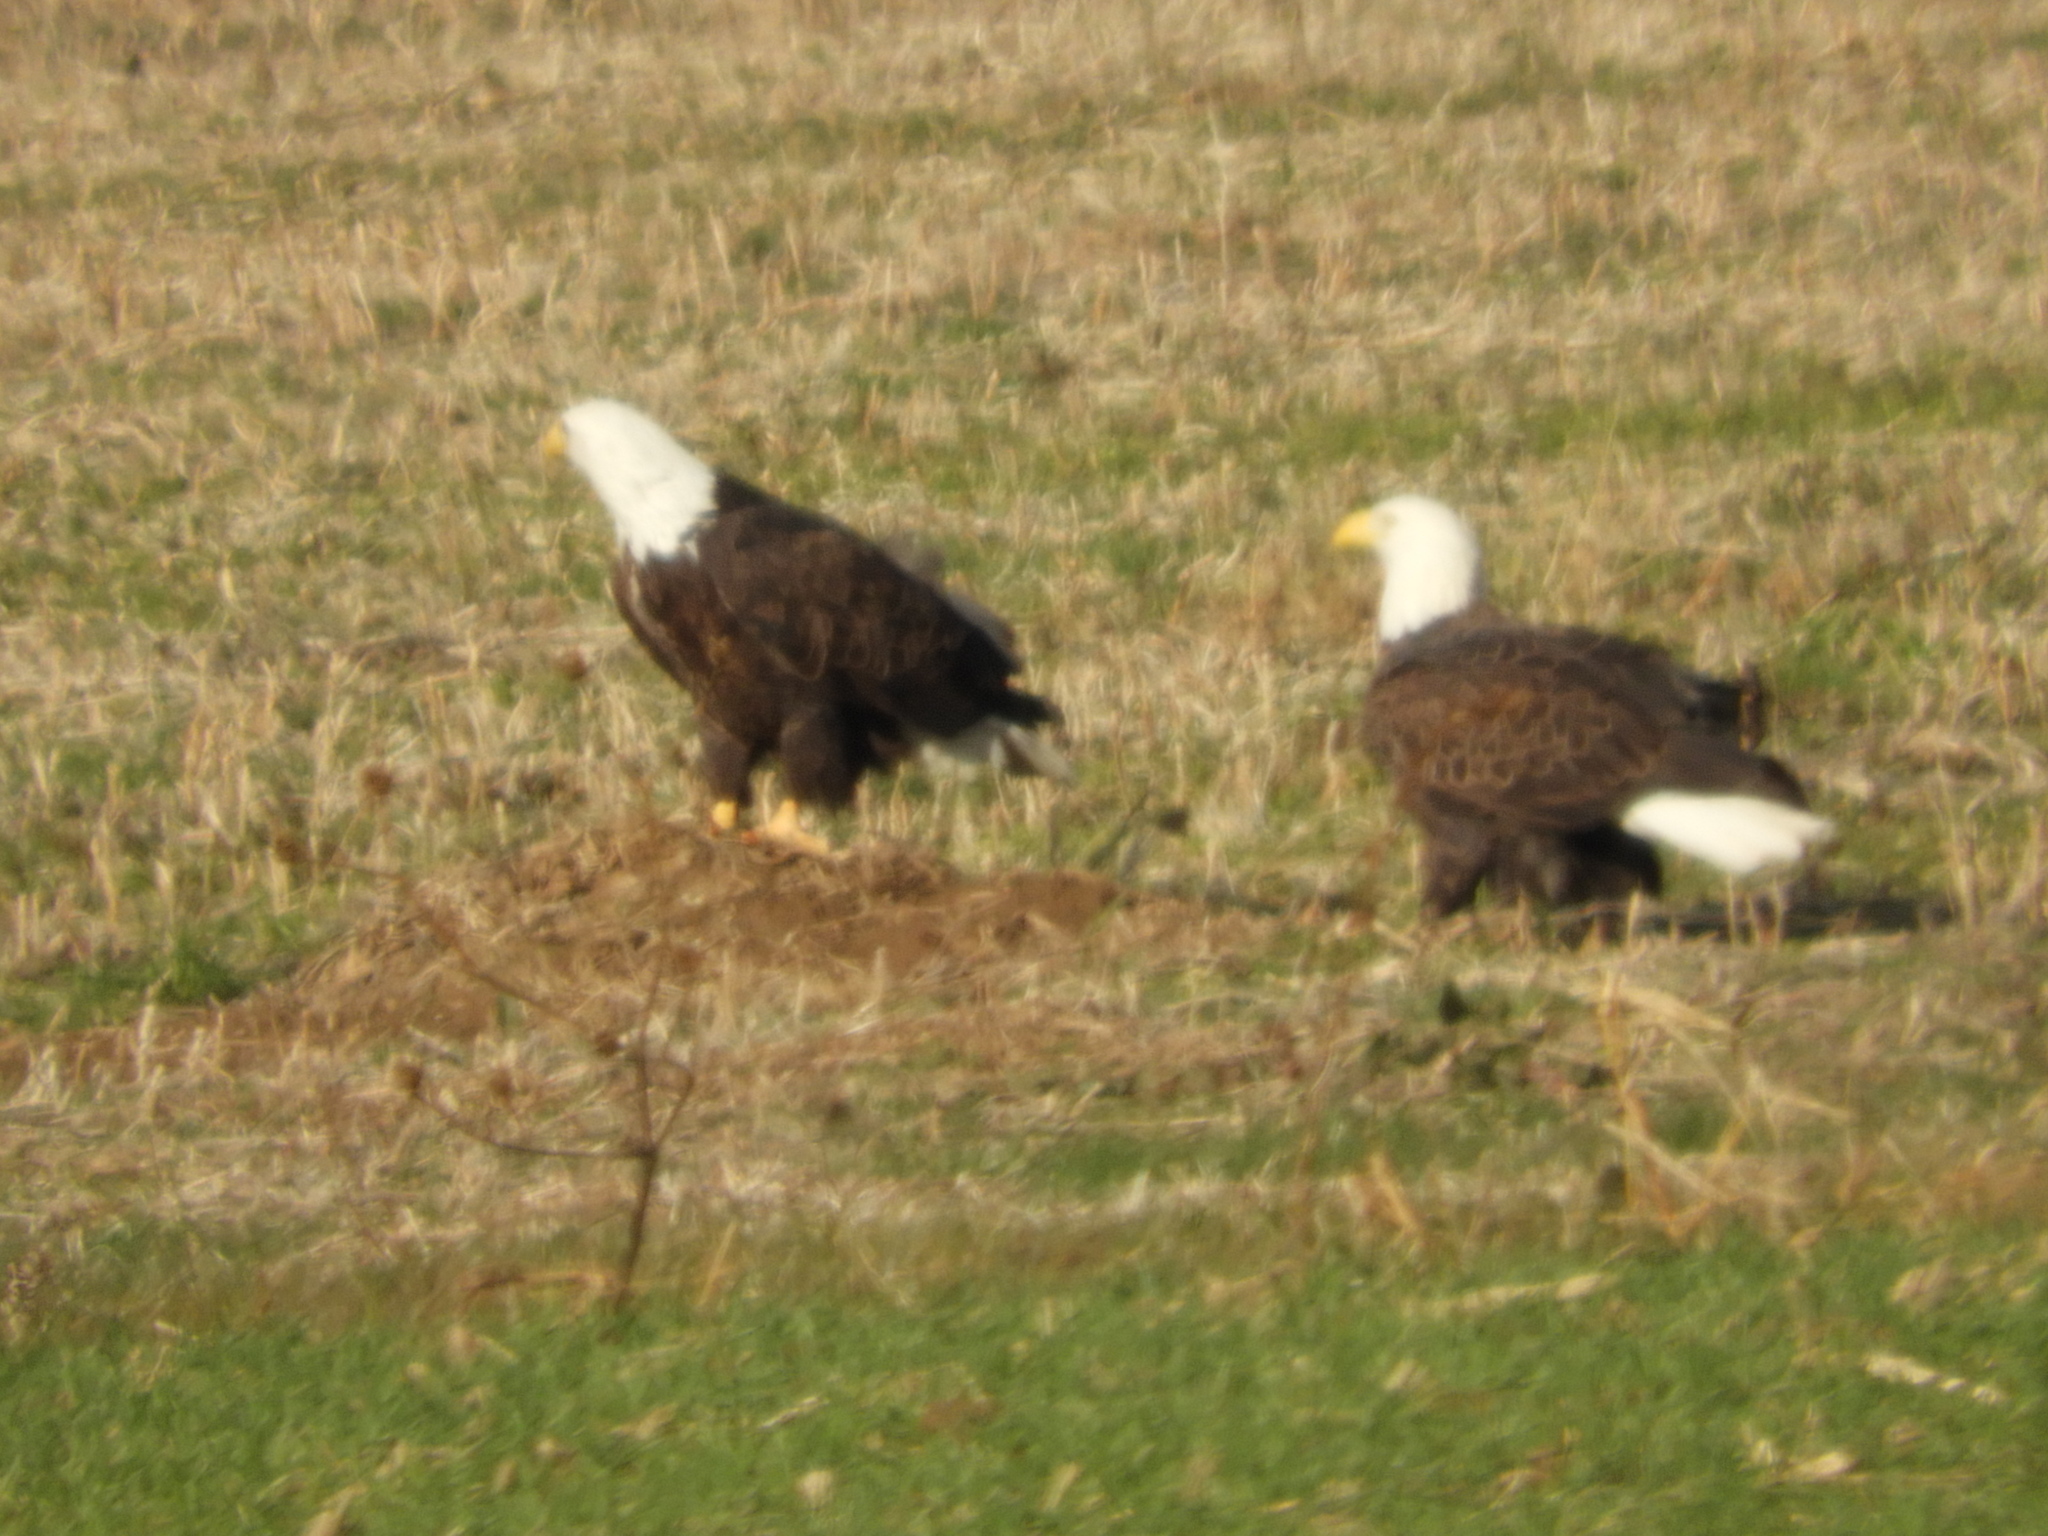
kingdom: Animalia
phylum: Chordata
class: Aves
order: Accipitriformes
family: Accipitridae
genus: Haliaeetus
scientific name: Haliaeetus leucocephalus
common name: Bald eagle
